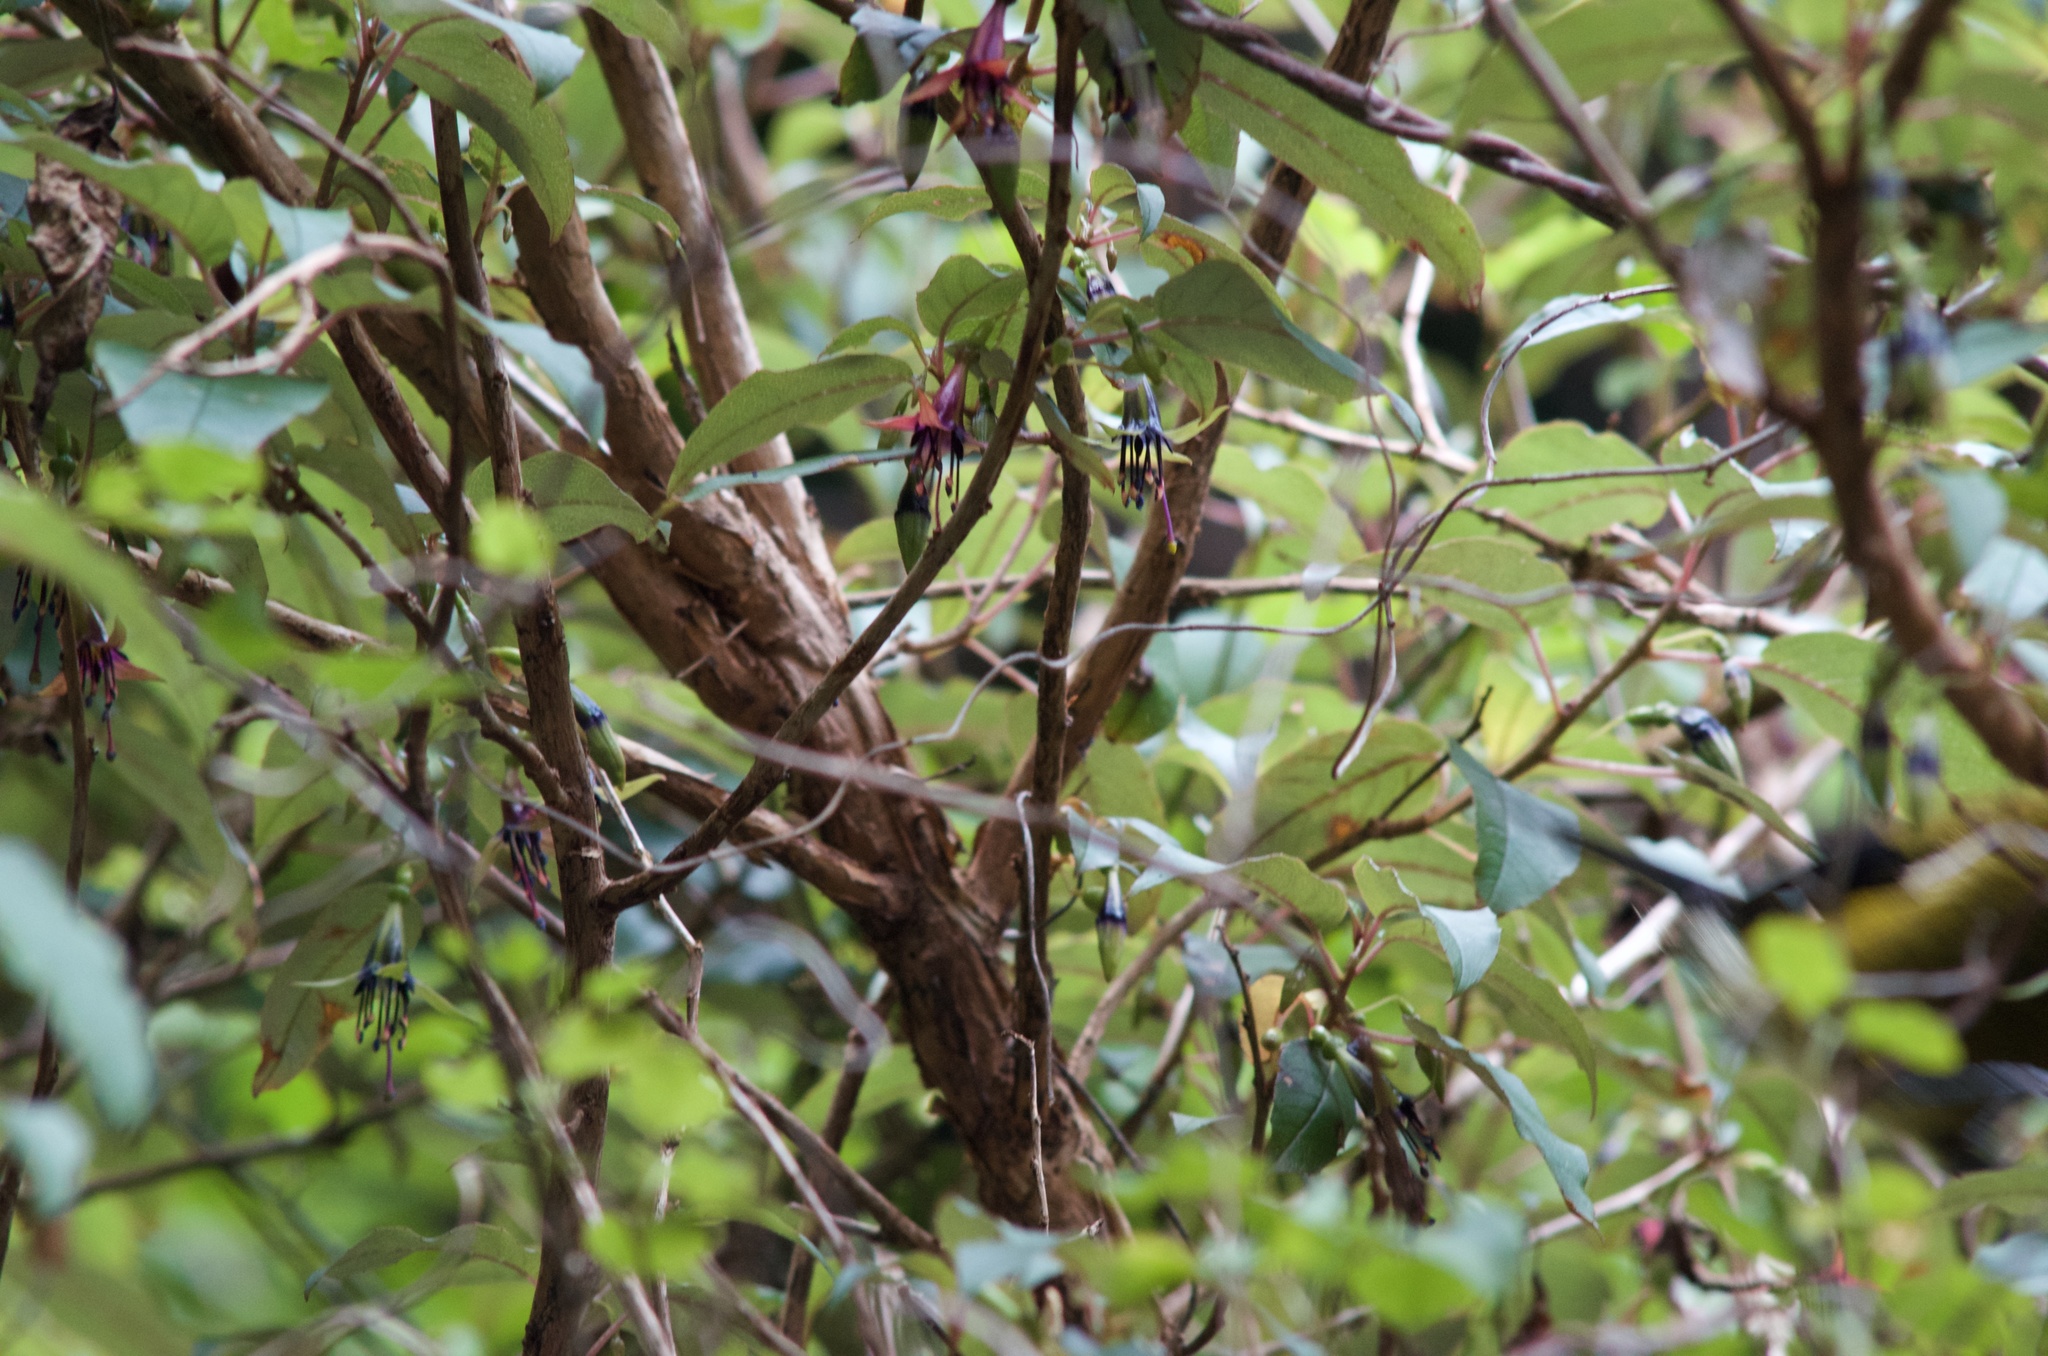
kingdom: Plantae
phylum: Tracheophyta
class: Magnoliopsida
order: Myrtales
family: Onagraceae
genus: Fuchsia
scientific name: Fuchsia excorticata
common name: Tree fuchsia
